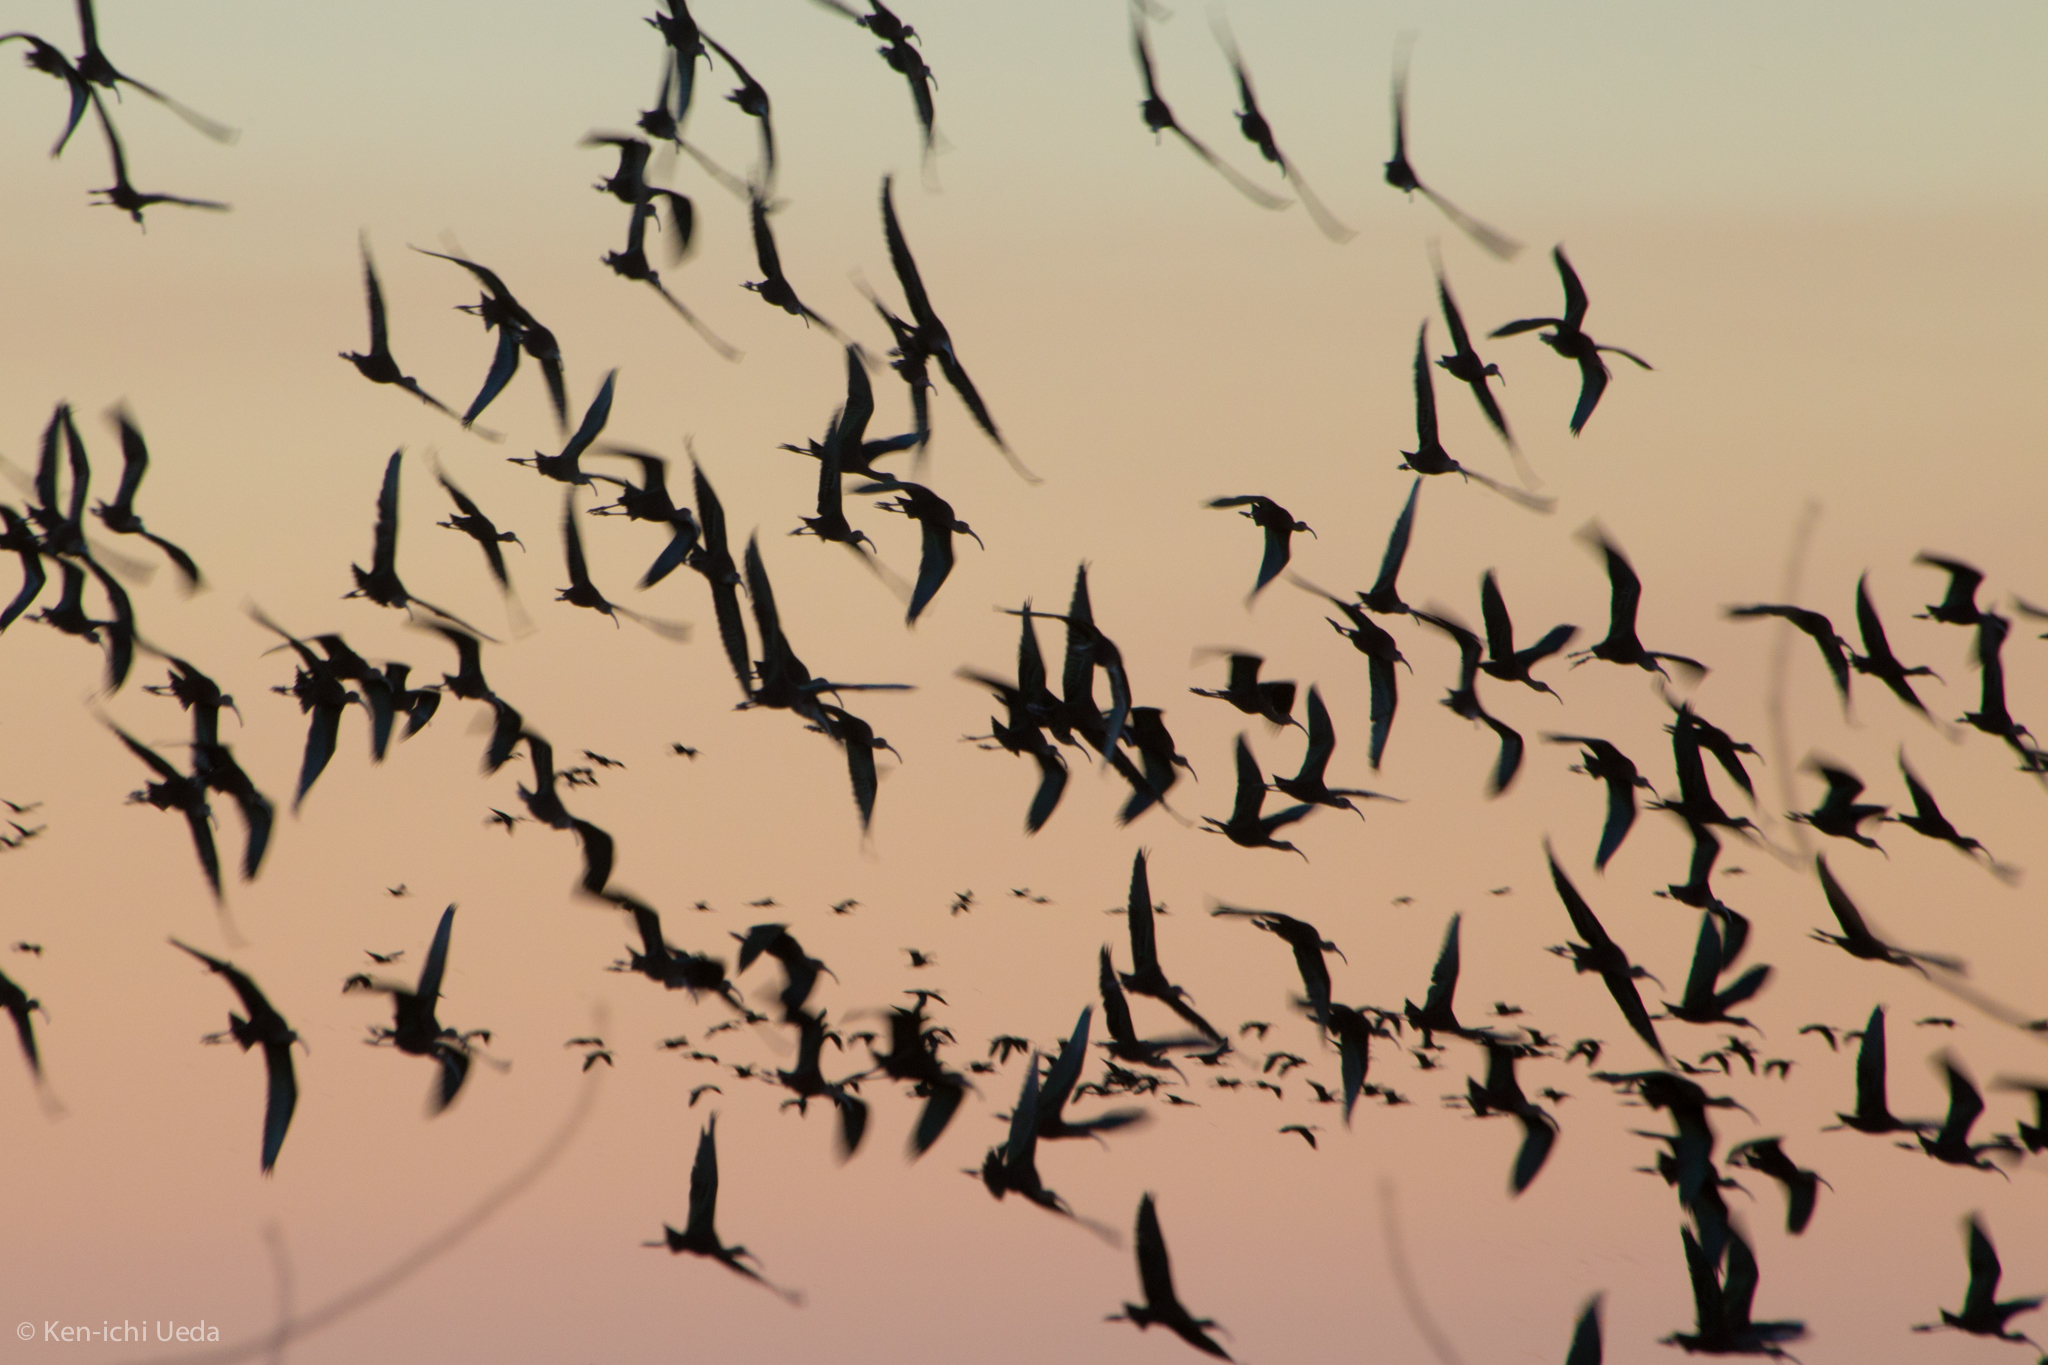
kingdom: Animalia
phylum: Chordata
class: Aves
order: Pelecaniformes
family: Threskiornithidae
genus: Plegadis
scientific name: Plegadis chihi
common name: White-faced ibis
